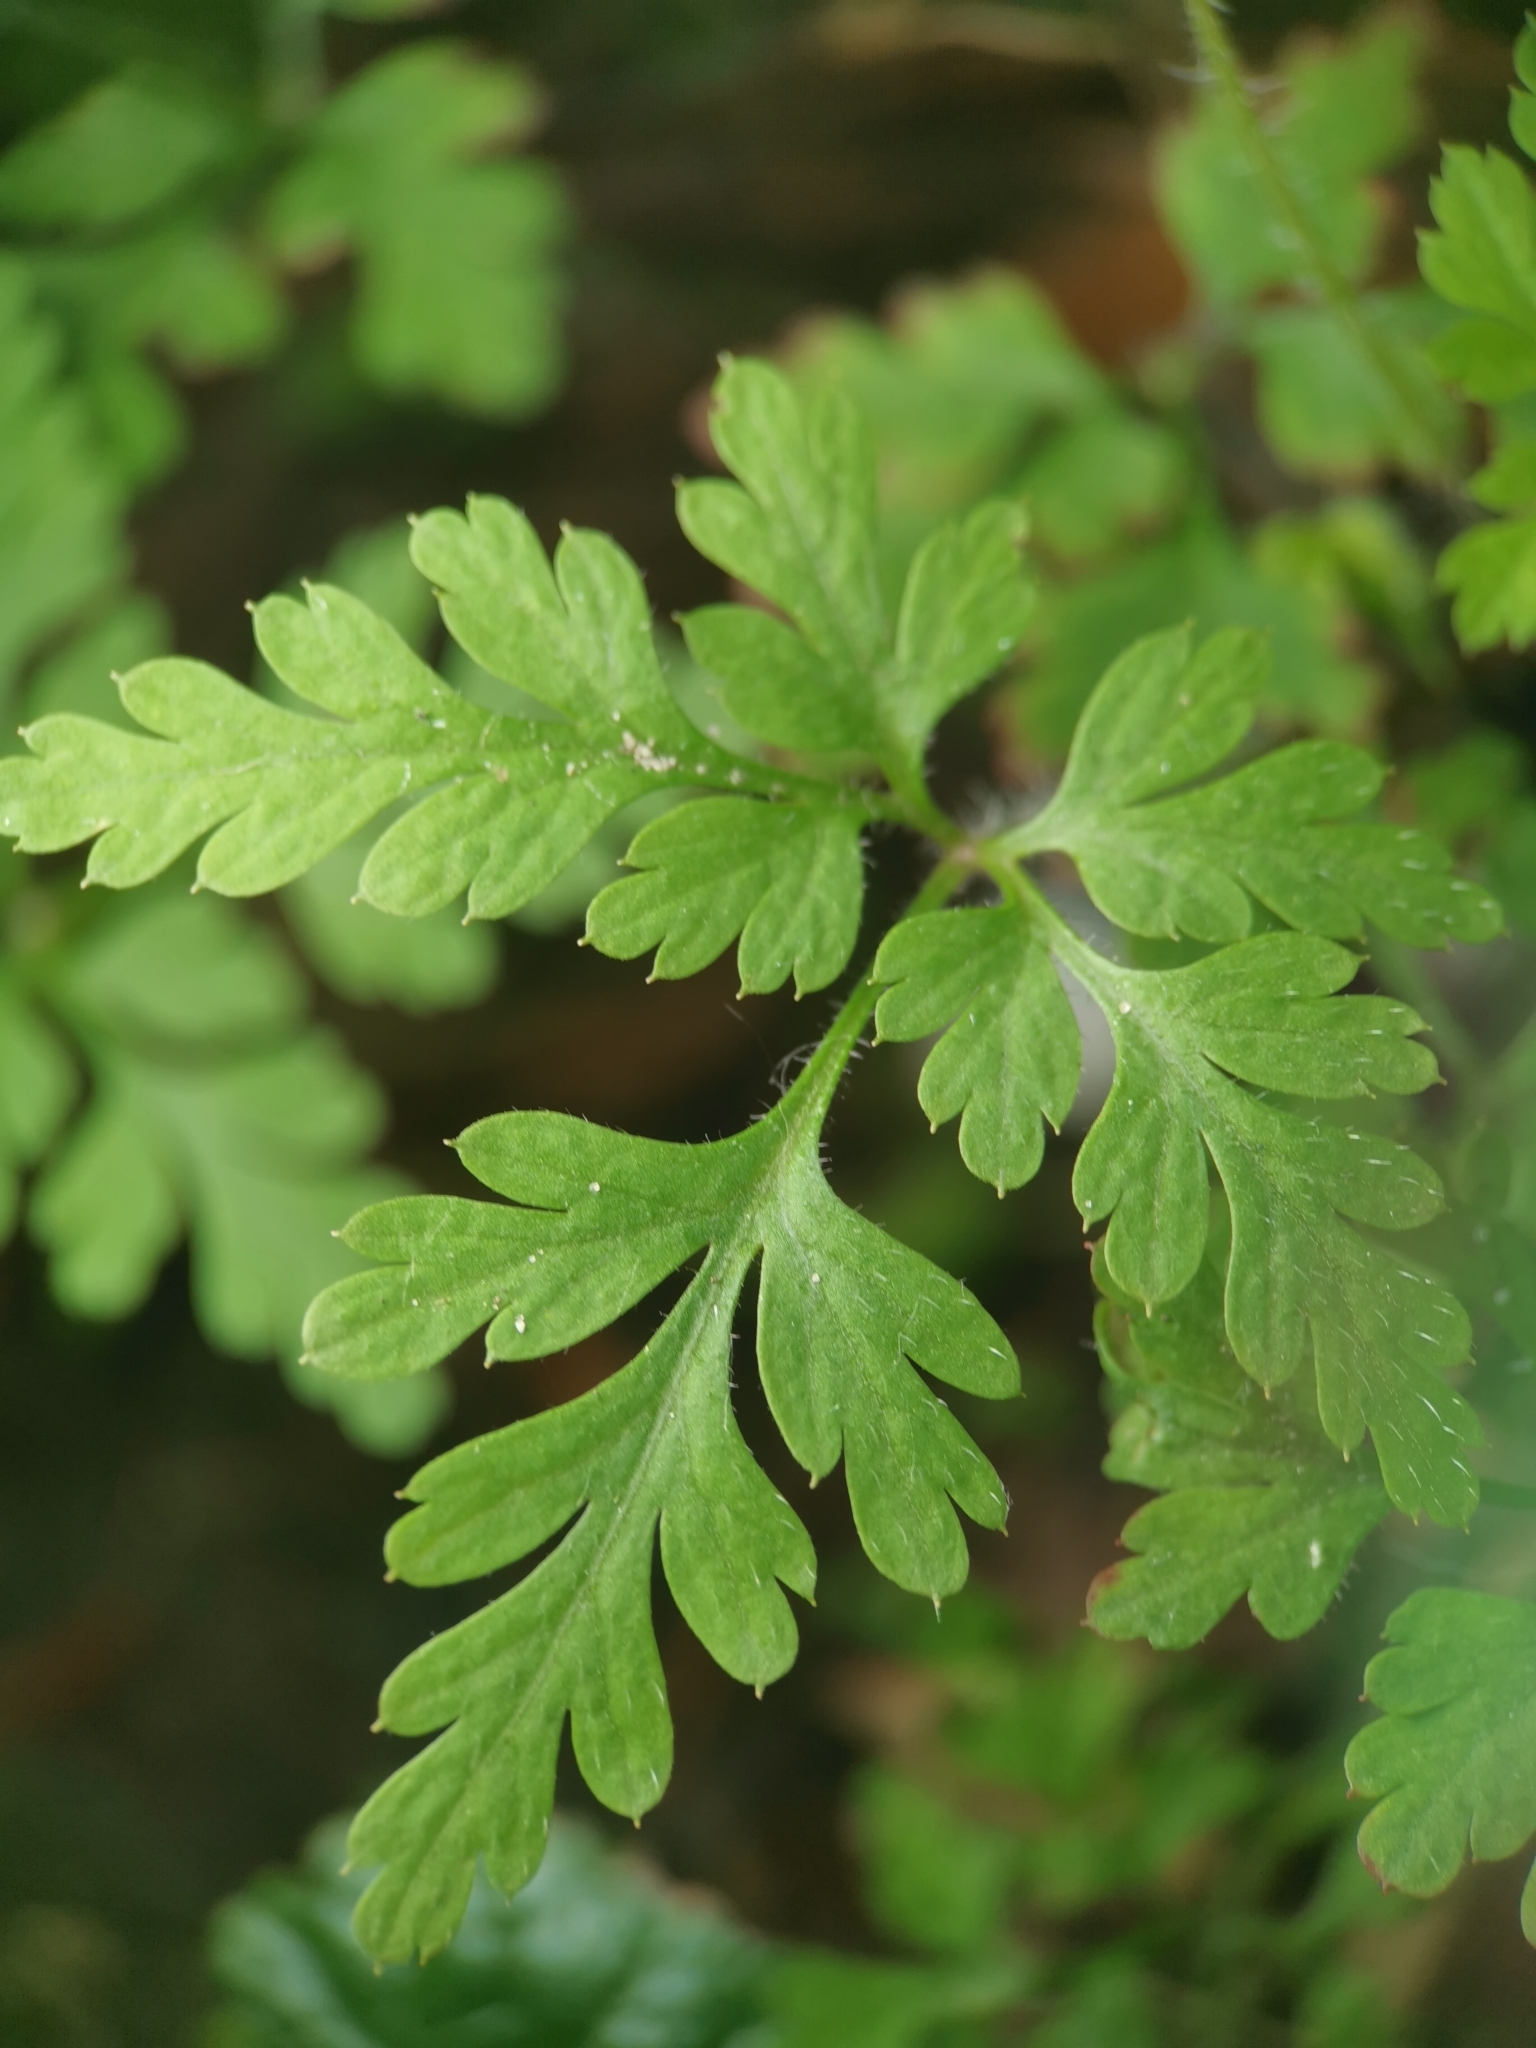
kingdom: Plantae
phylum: Tracheophyta
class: Magnoliopsida
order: Geraniales
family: Geraniaceae
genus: Geranium
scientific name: Geranium robertianum
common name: Herb-robert
